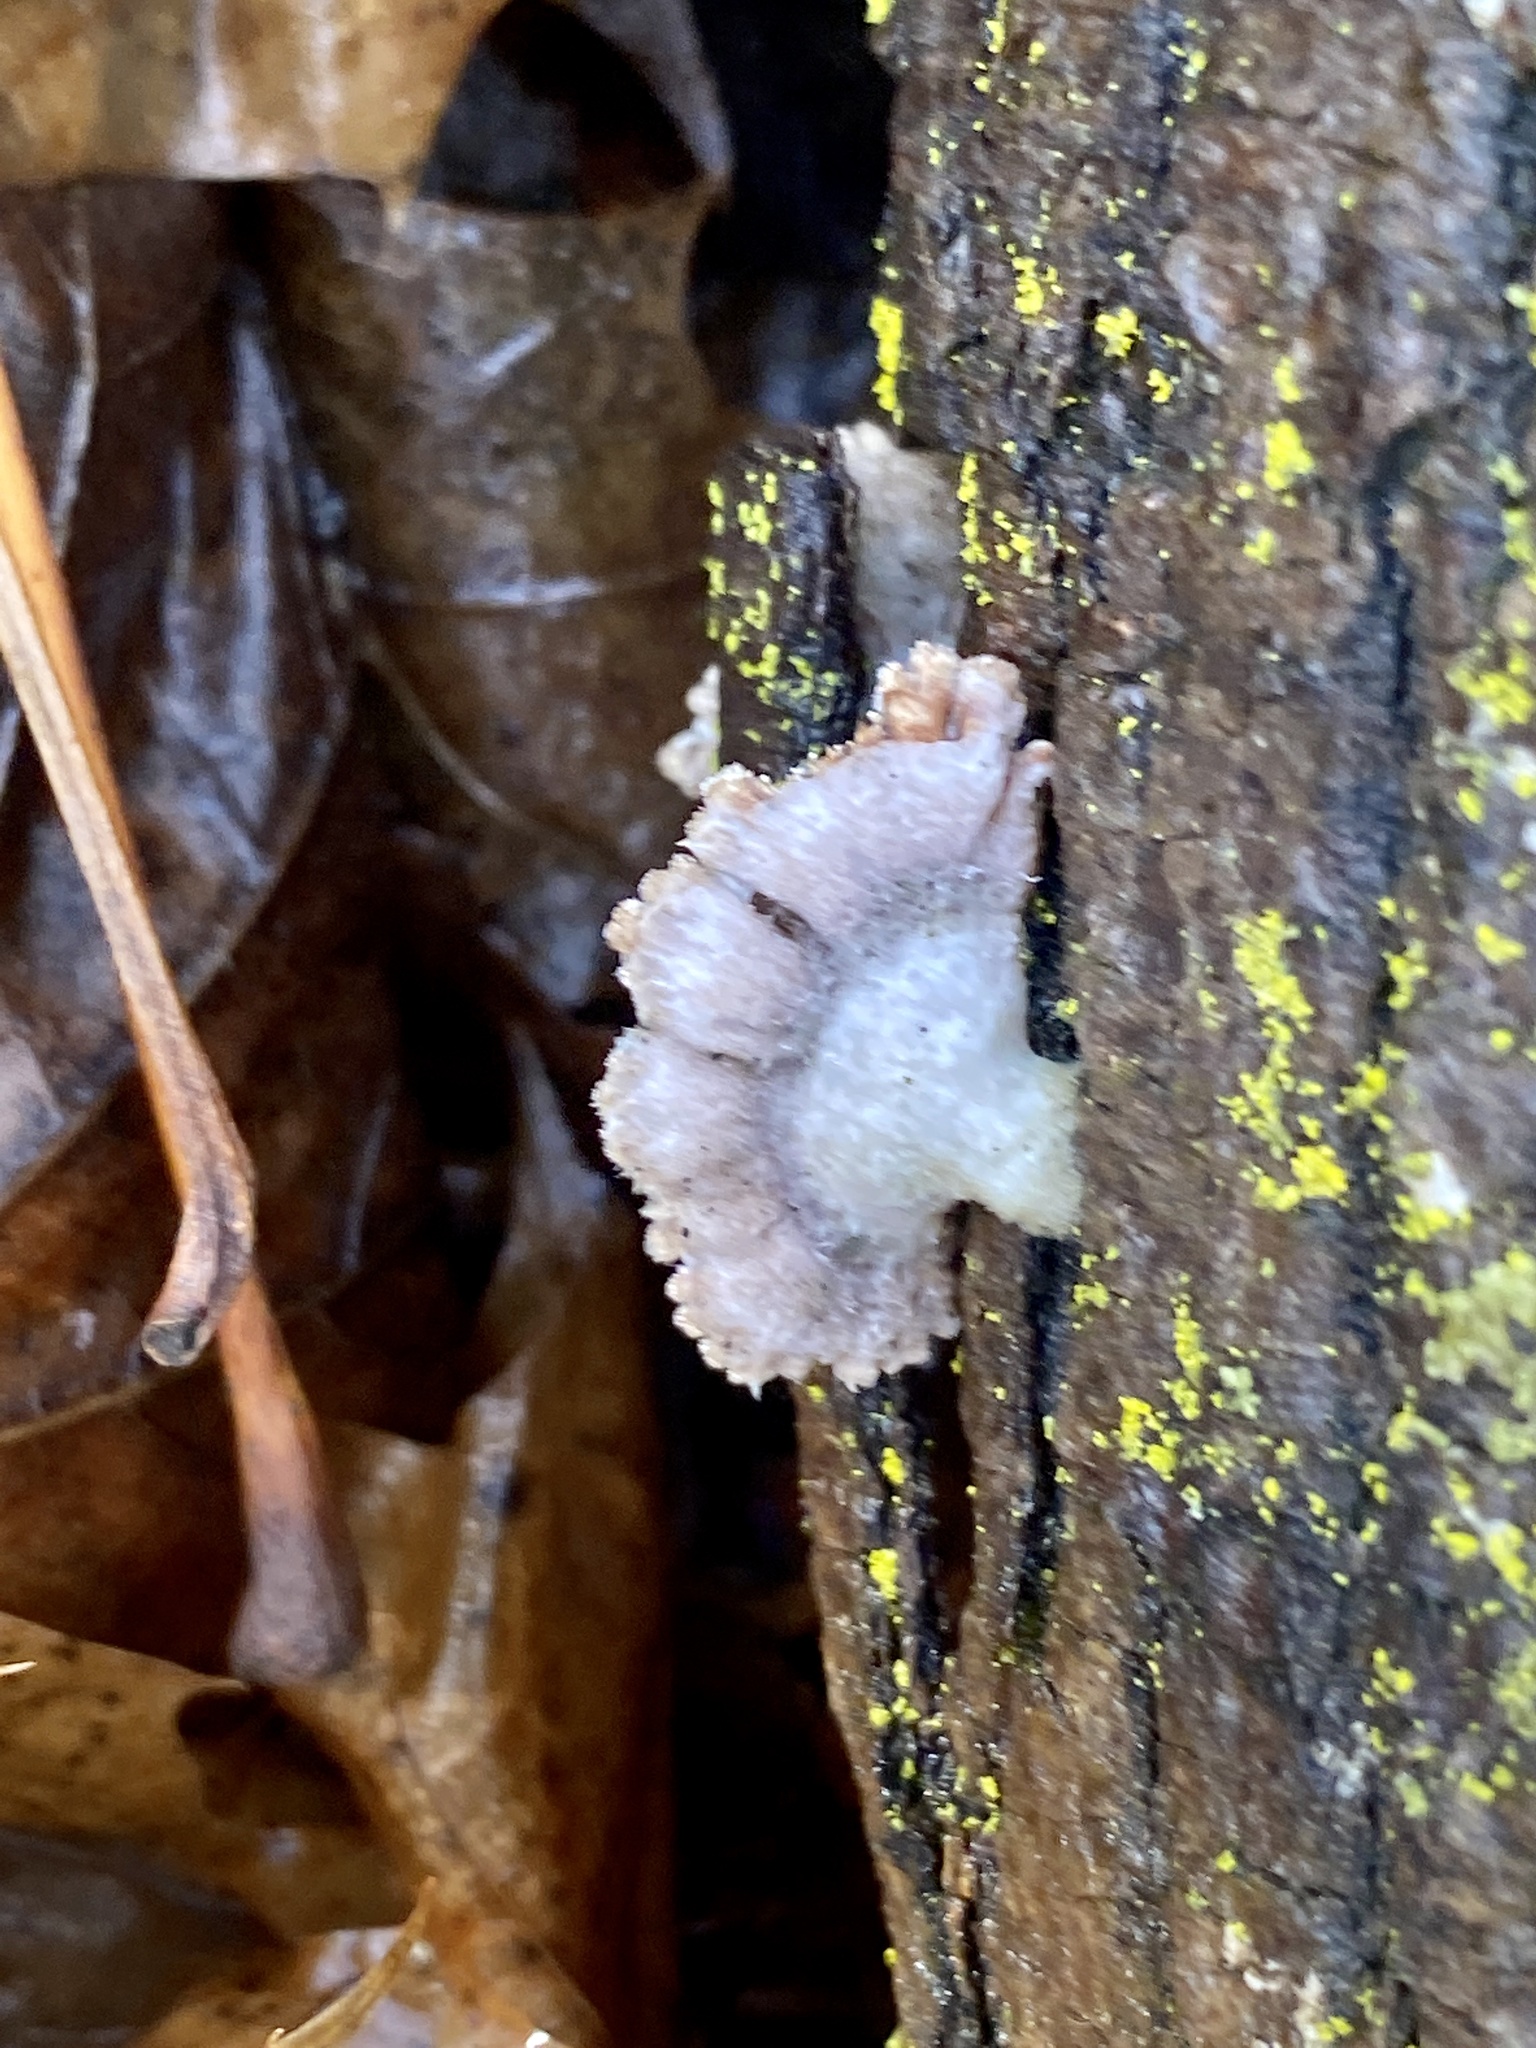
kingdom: Fungi
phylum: Basidiomycota
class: Agaricomycetes
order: Agaricales
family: Schizophyllaceae
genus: Schizophyllum
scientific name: Schizophyllum commune
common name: Common porecrust
